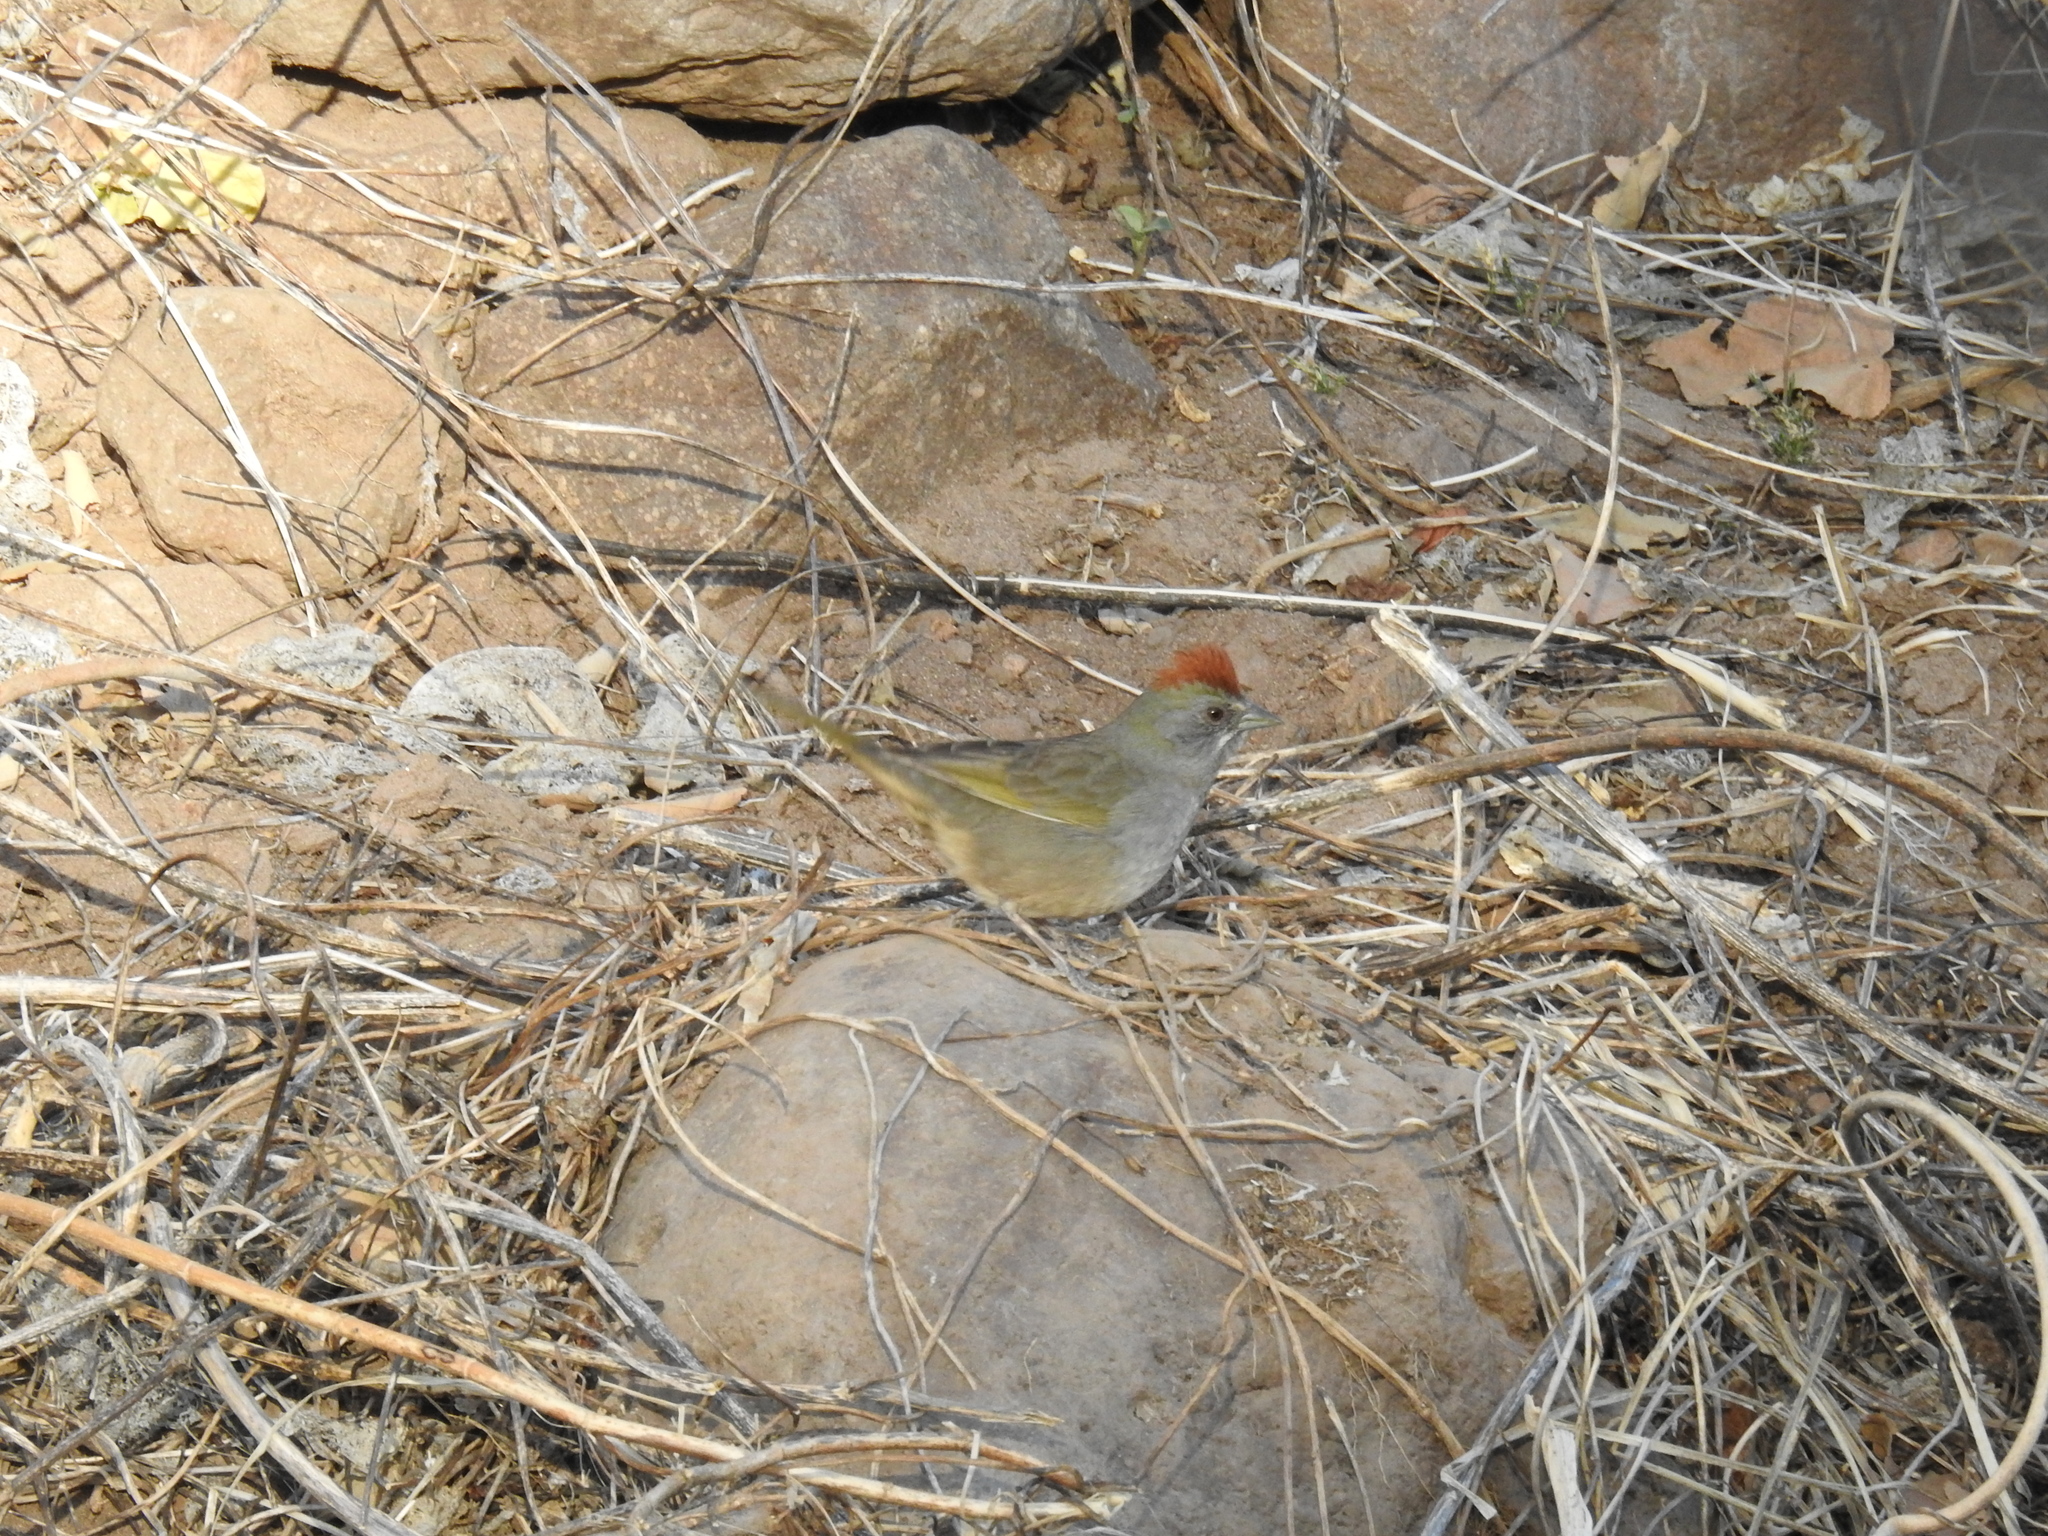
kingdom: Animalia
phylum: Chordata
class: Aves
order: Passeriformes
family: Passerellidae
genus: Pipilo
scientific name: Pipilo chlorurus
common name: Green-tailed towhee
